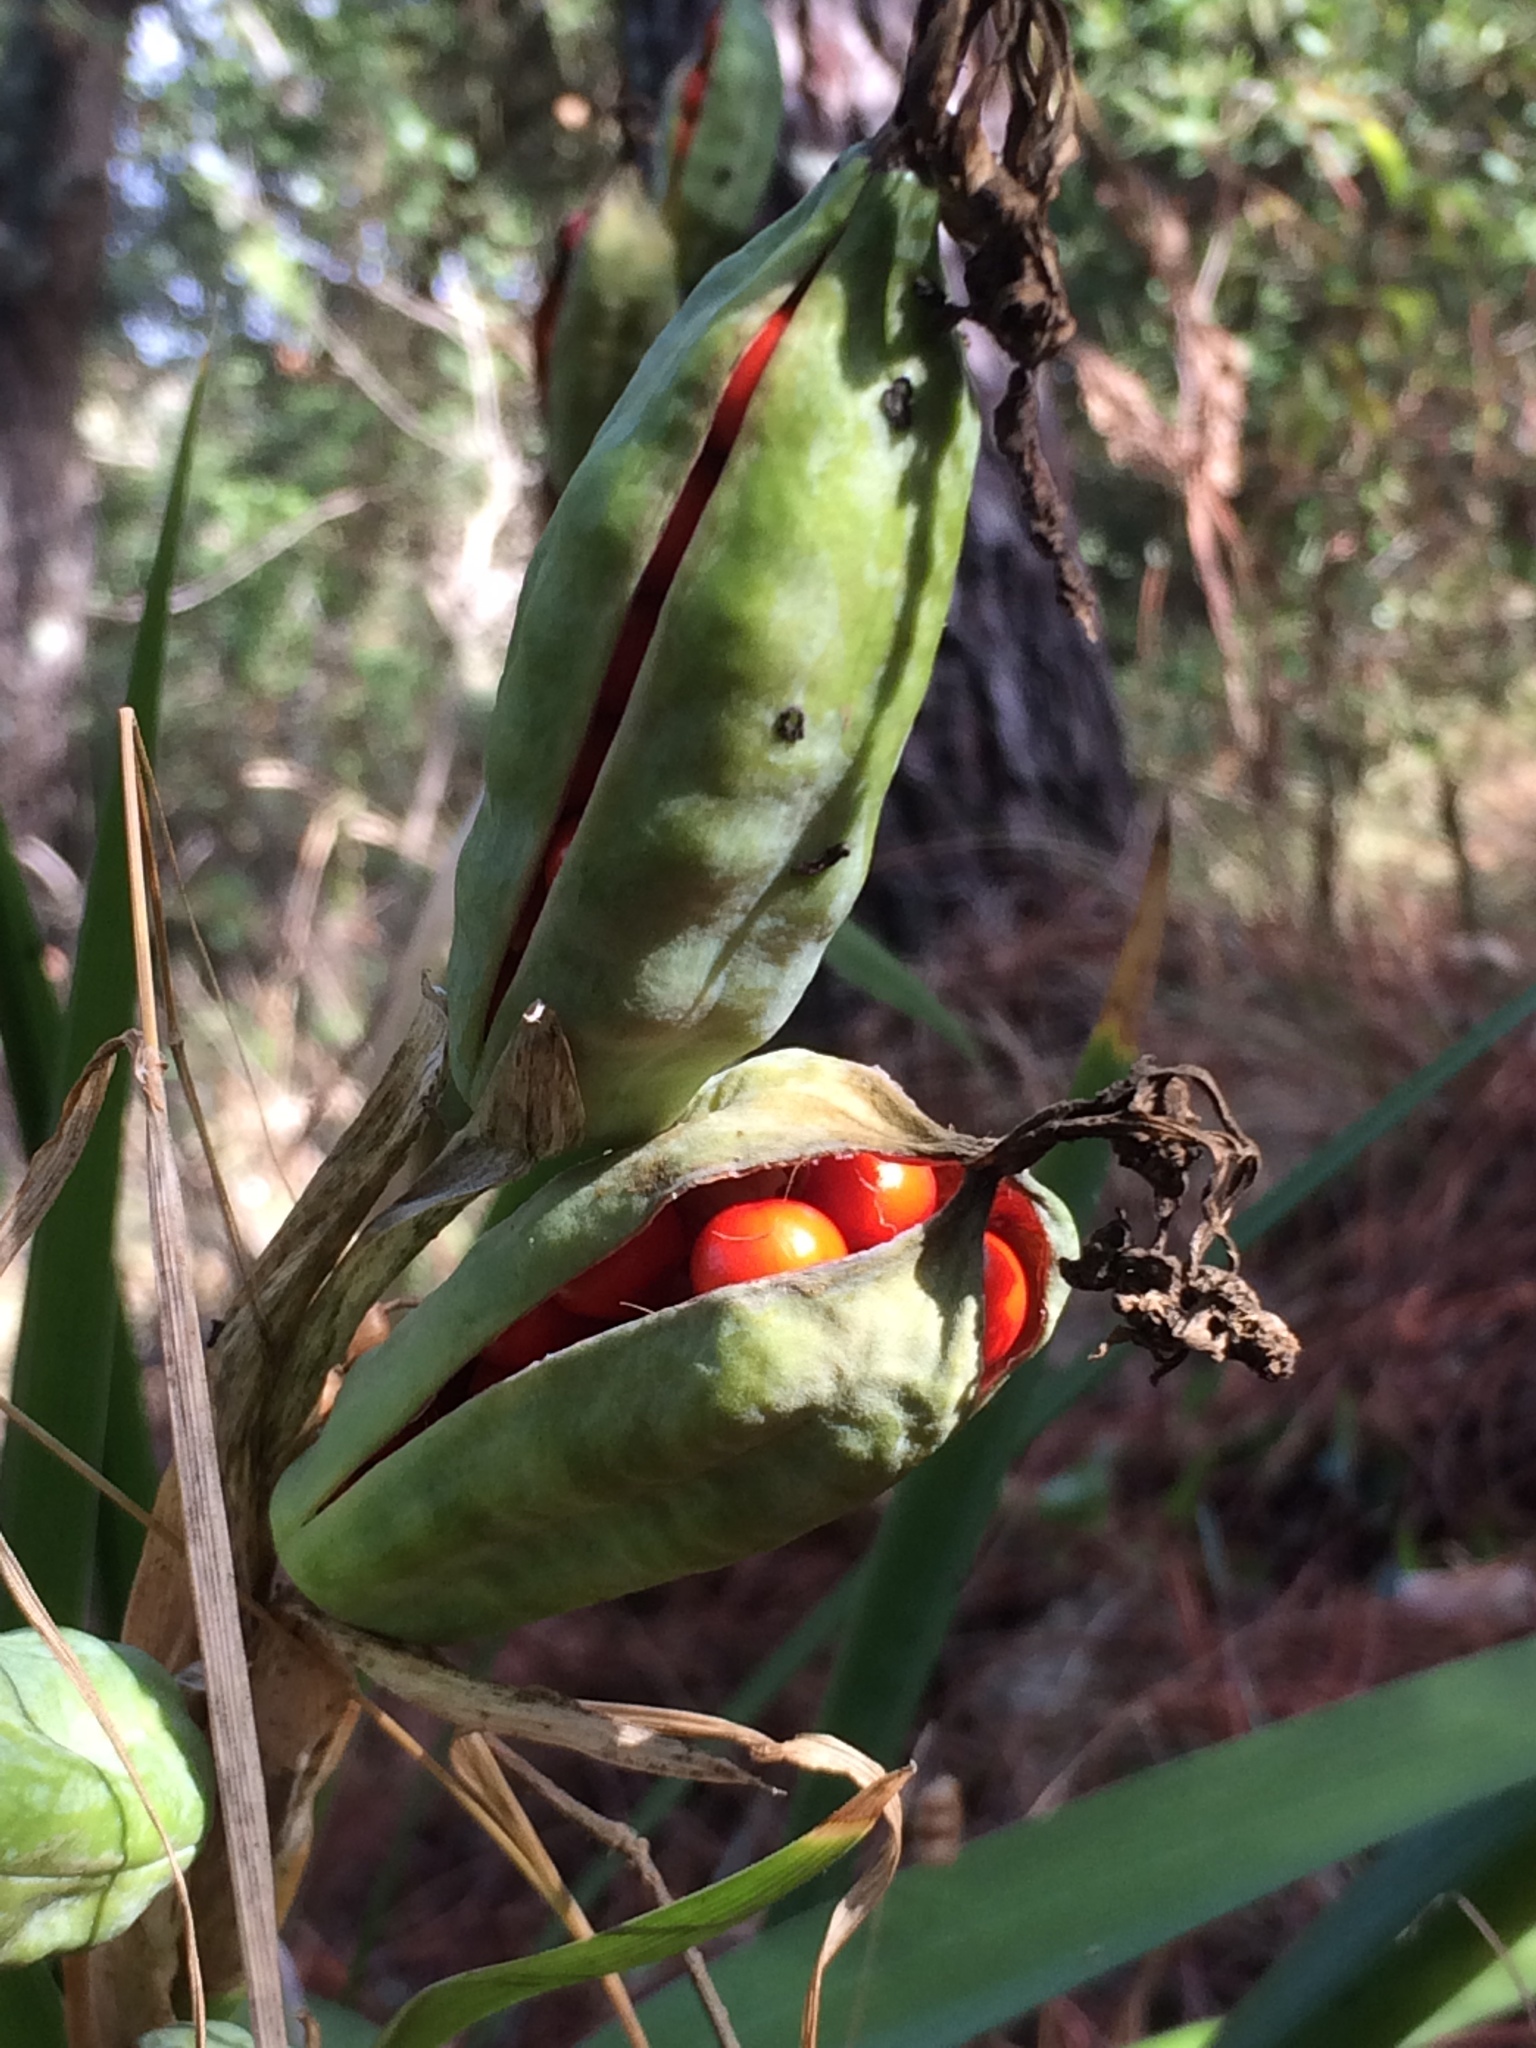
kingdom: Plantae
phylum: Tracheophyta
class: Liliopsida
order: Asparagales
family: Iridaceae
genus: Iris
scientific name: Iris foetidissima
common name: Stinking iris
